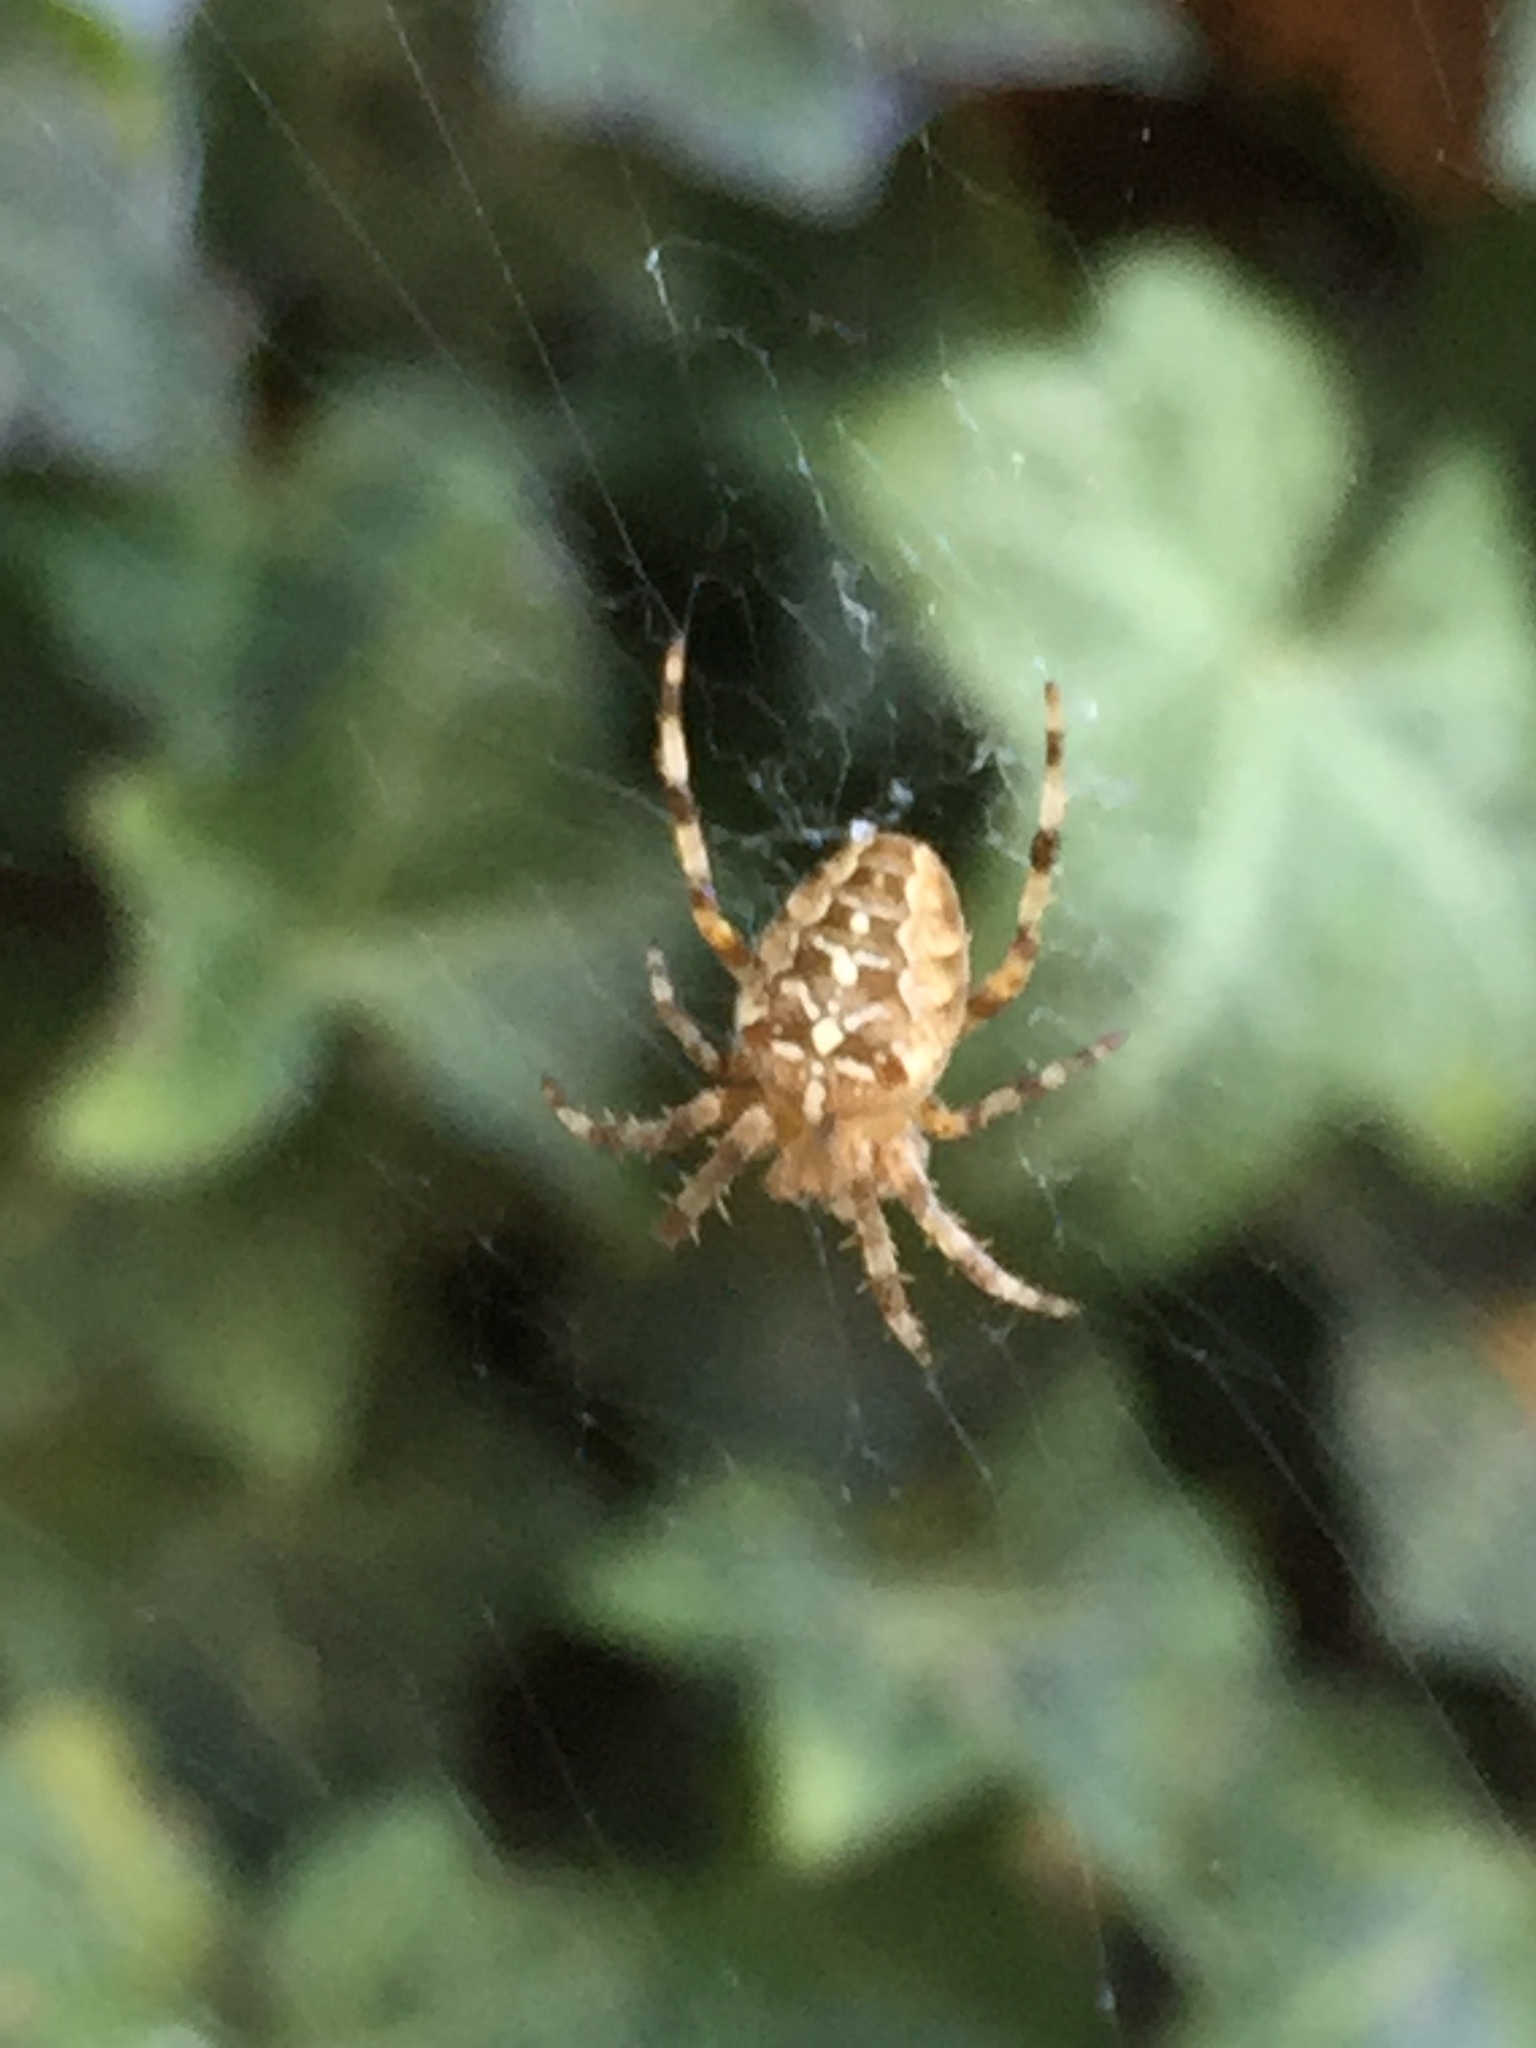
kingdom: Animalia
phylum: Arthropoda
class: Arachnida
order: Araneae
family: Araneidae
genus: Araneus
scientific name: Araneus diadematus
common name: Cross orbweaver
